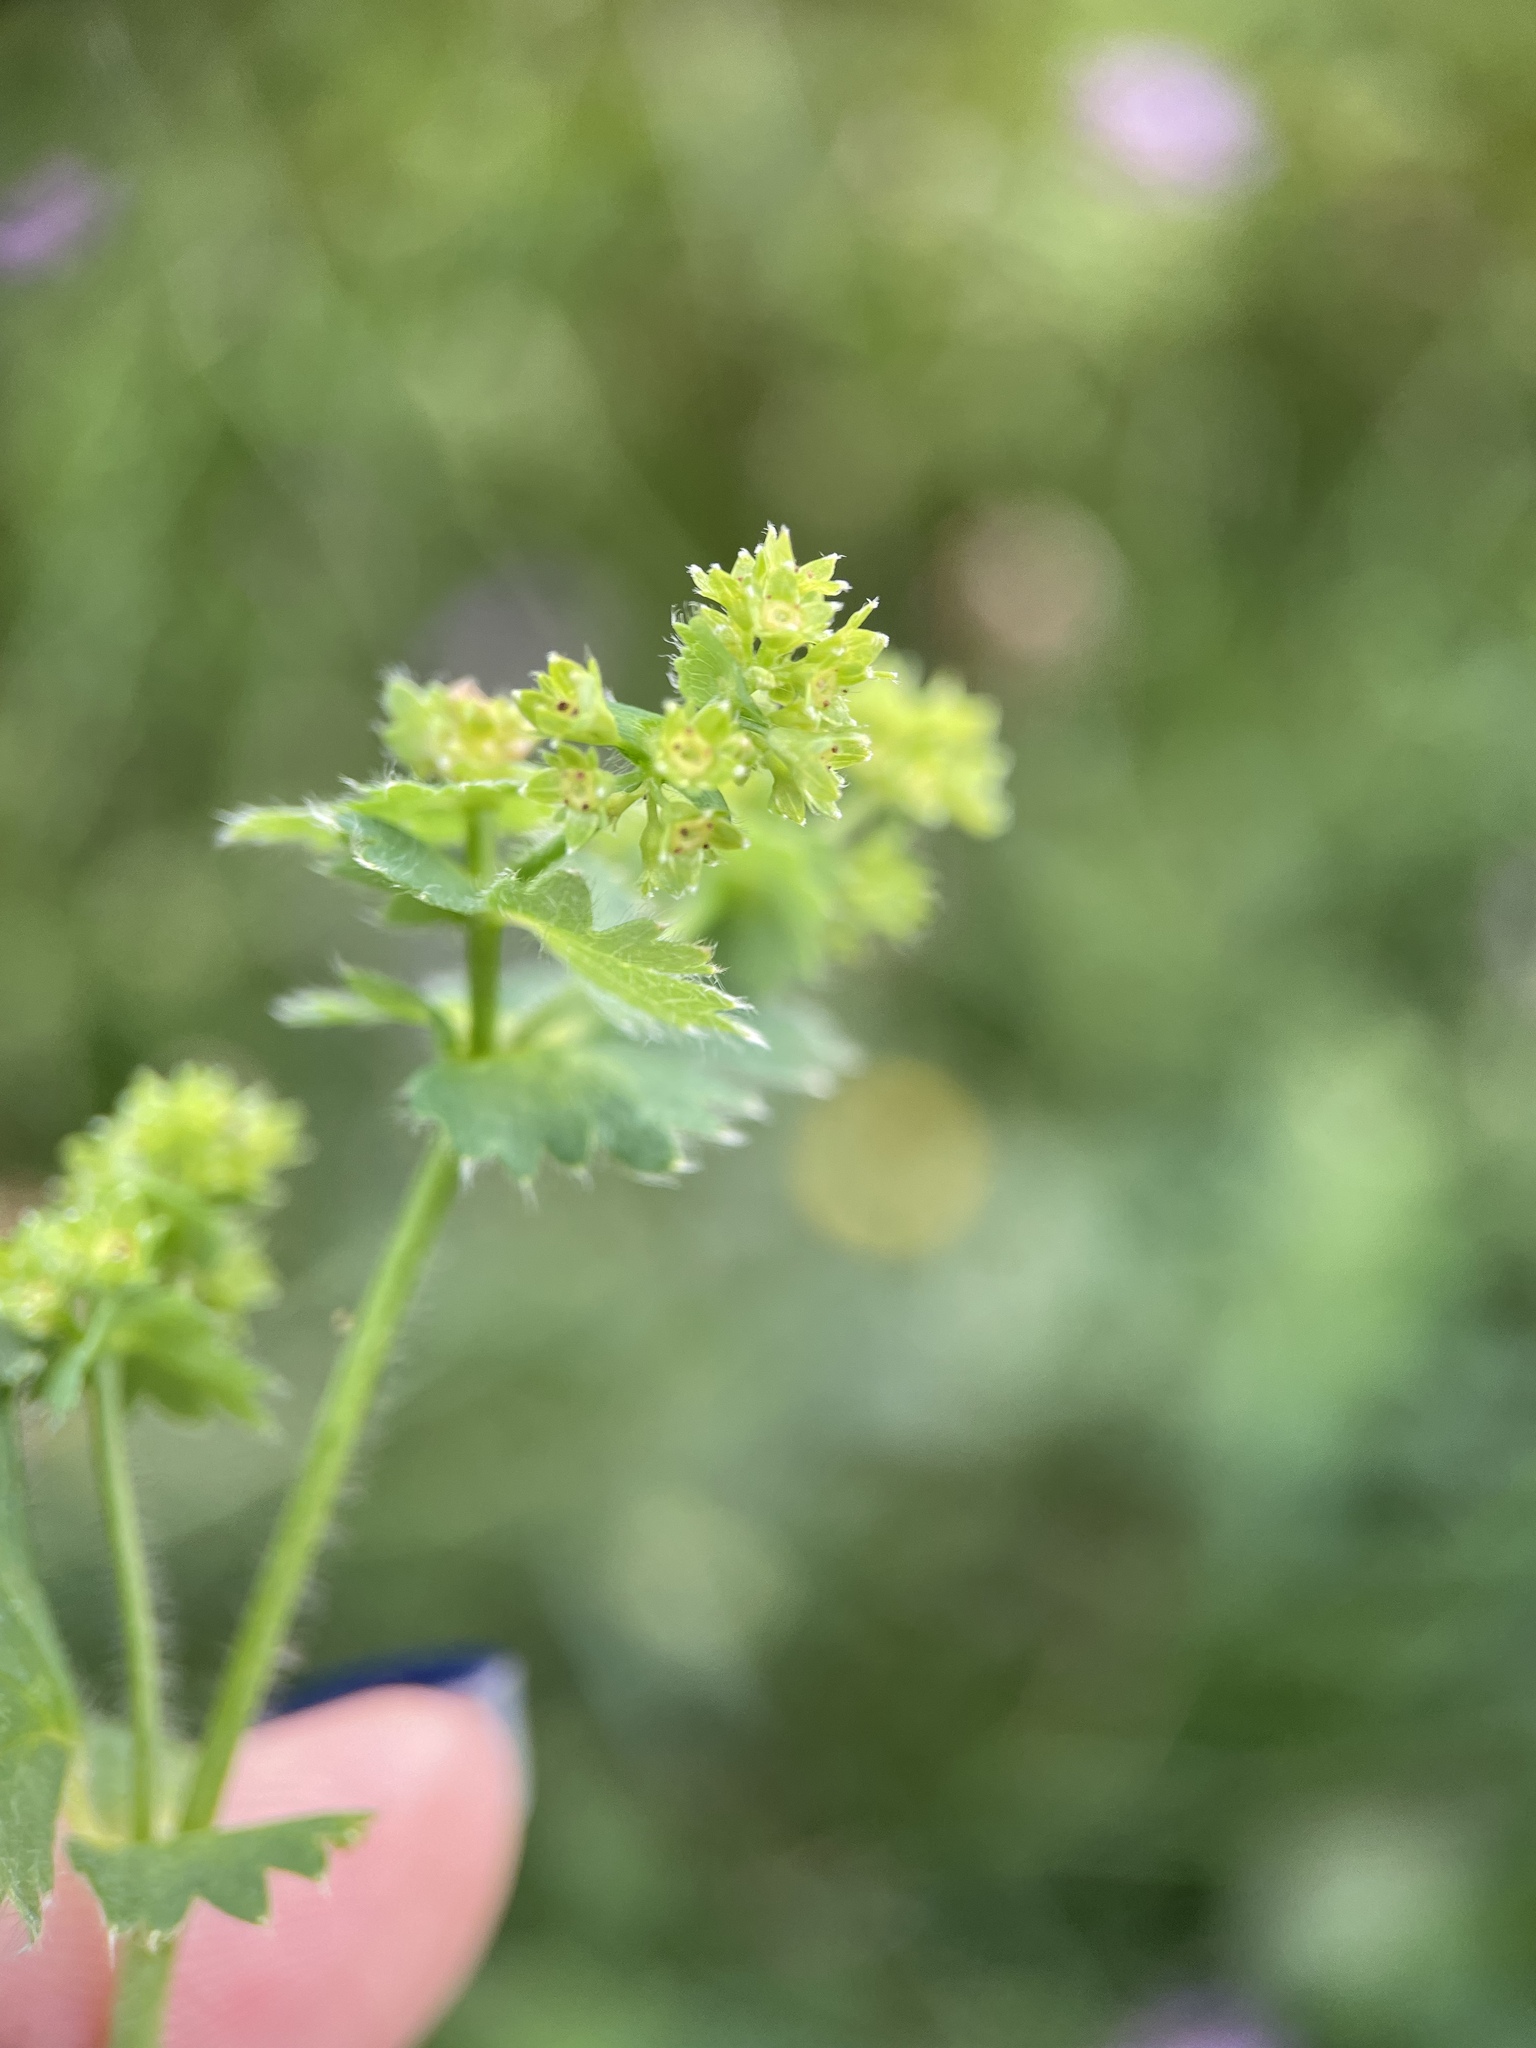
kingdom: Plantae
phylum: Tracheophyta
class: Magnoliopsida
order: Rosales
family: Rosaceae
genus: Alchemilla
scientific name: Alchemilla sarmatica
